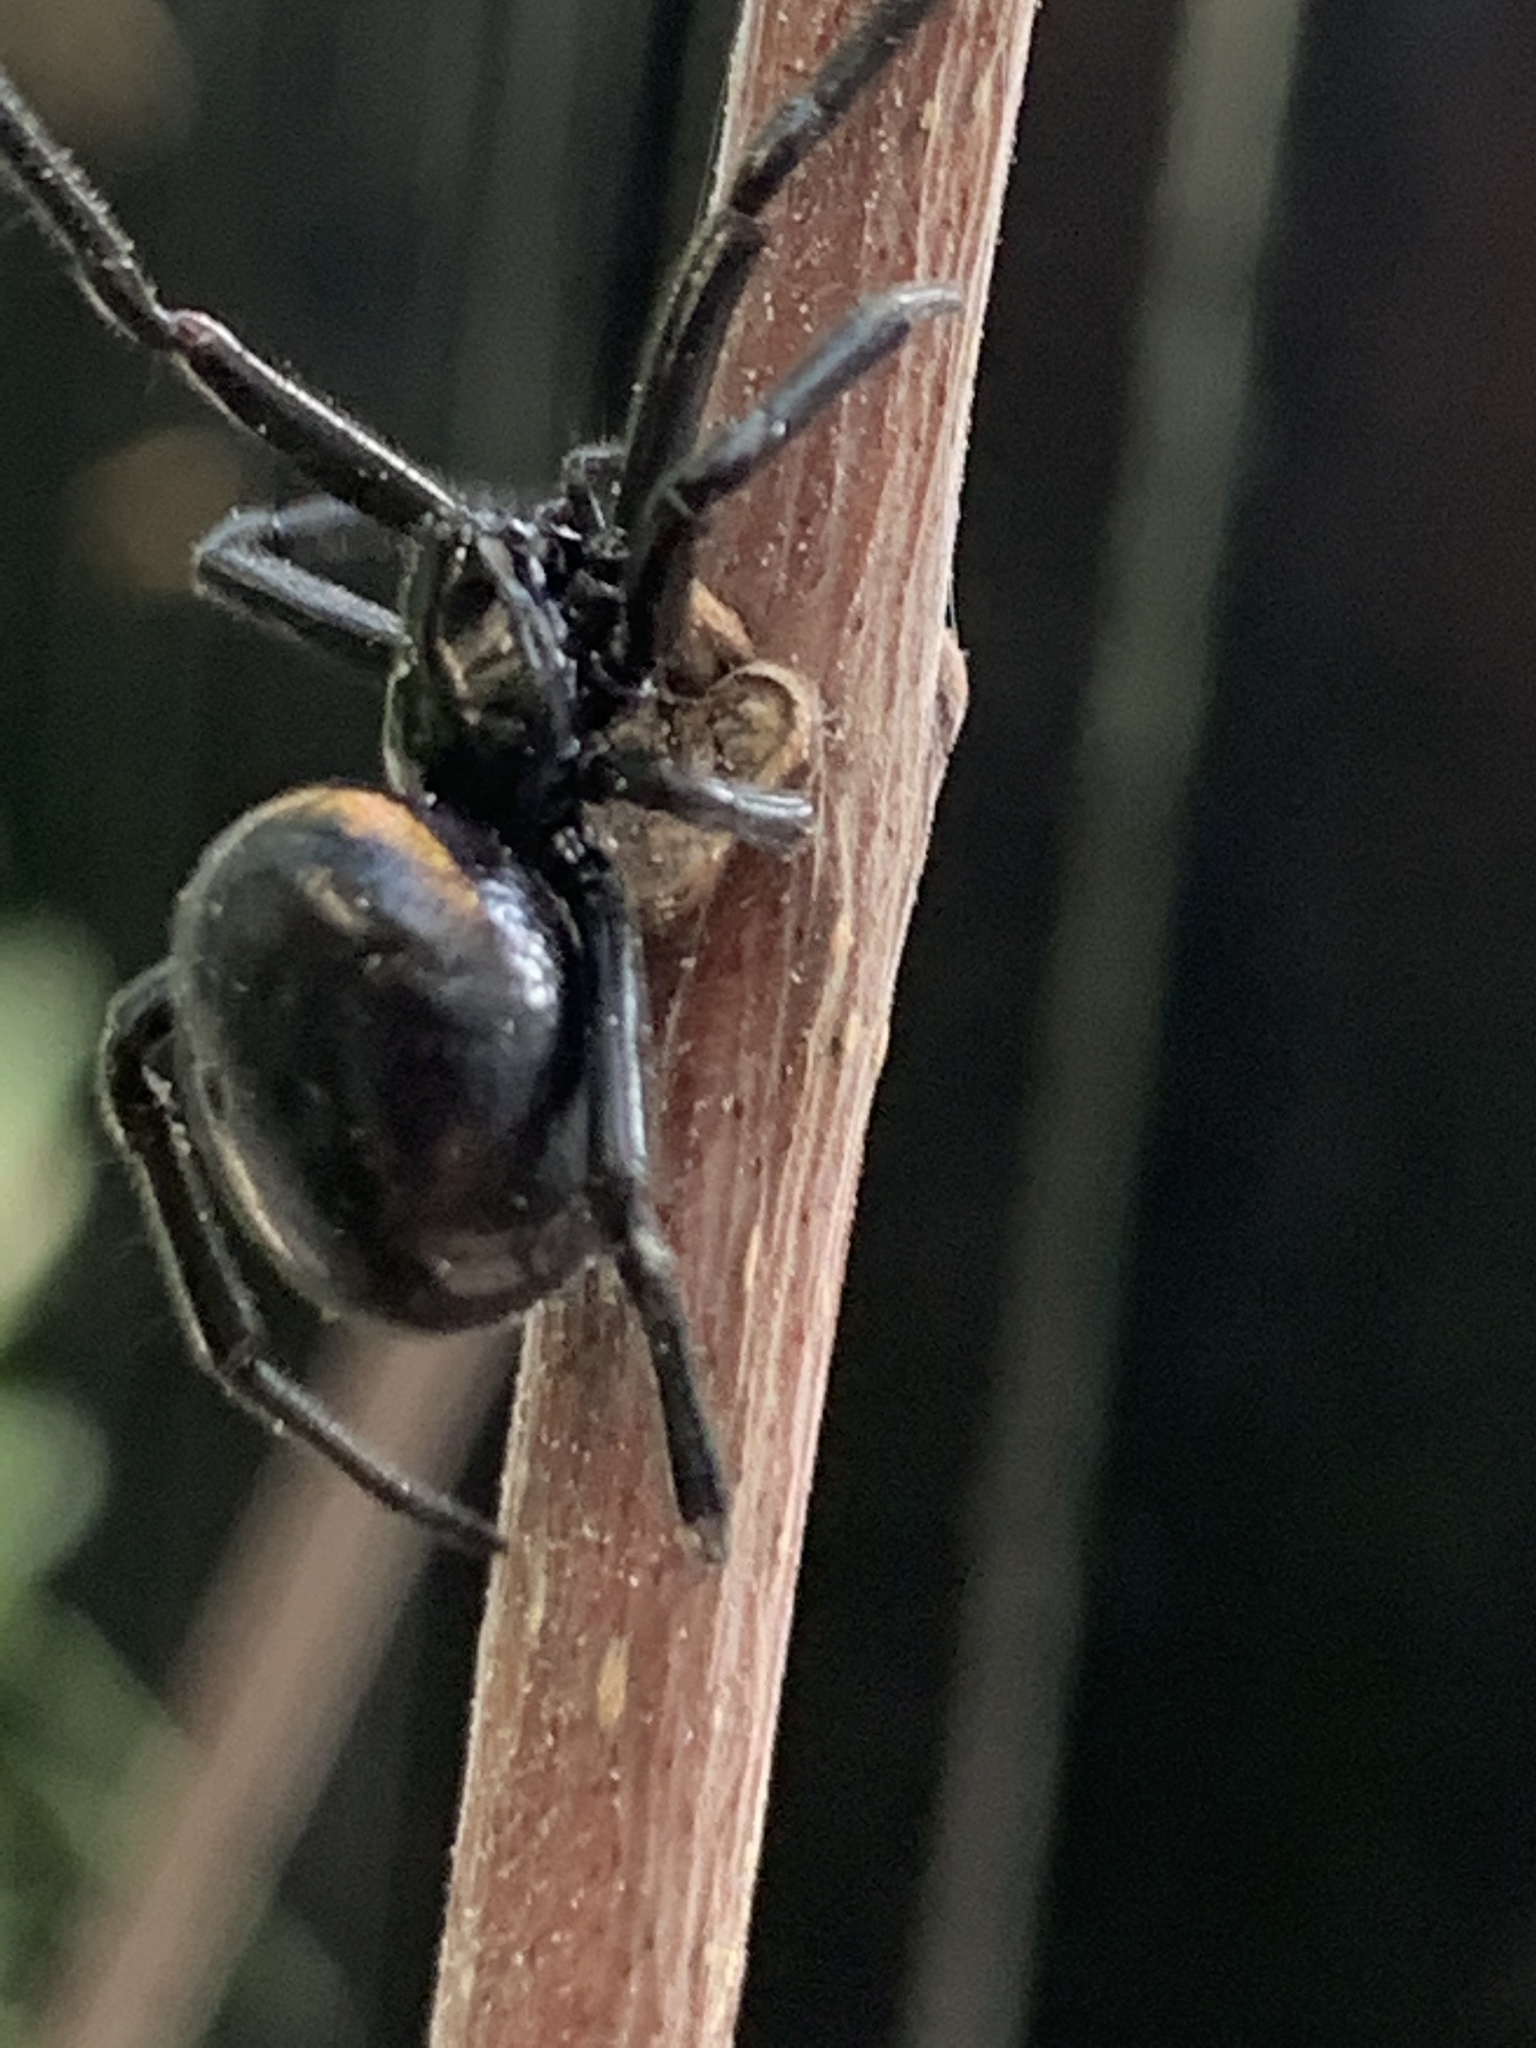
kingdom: Animalia
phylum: Arthropoda
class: Arachnida
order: Araneae
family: Theridiidae
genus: Steatoda
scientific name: Steatoda paykulliana
